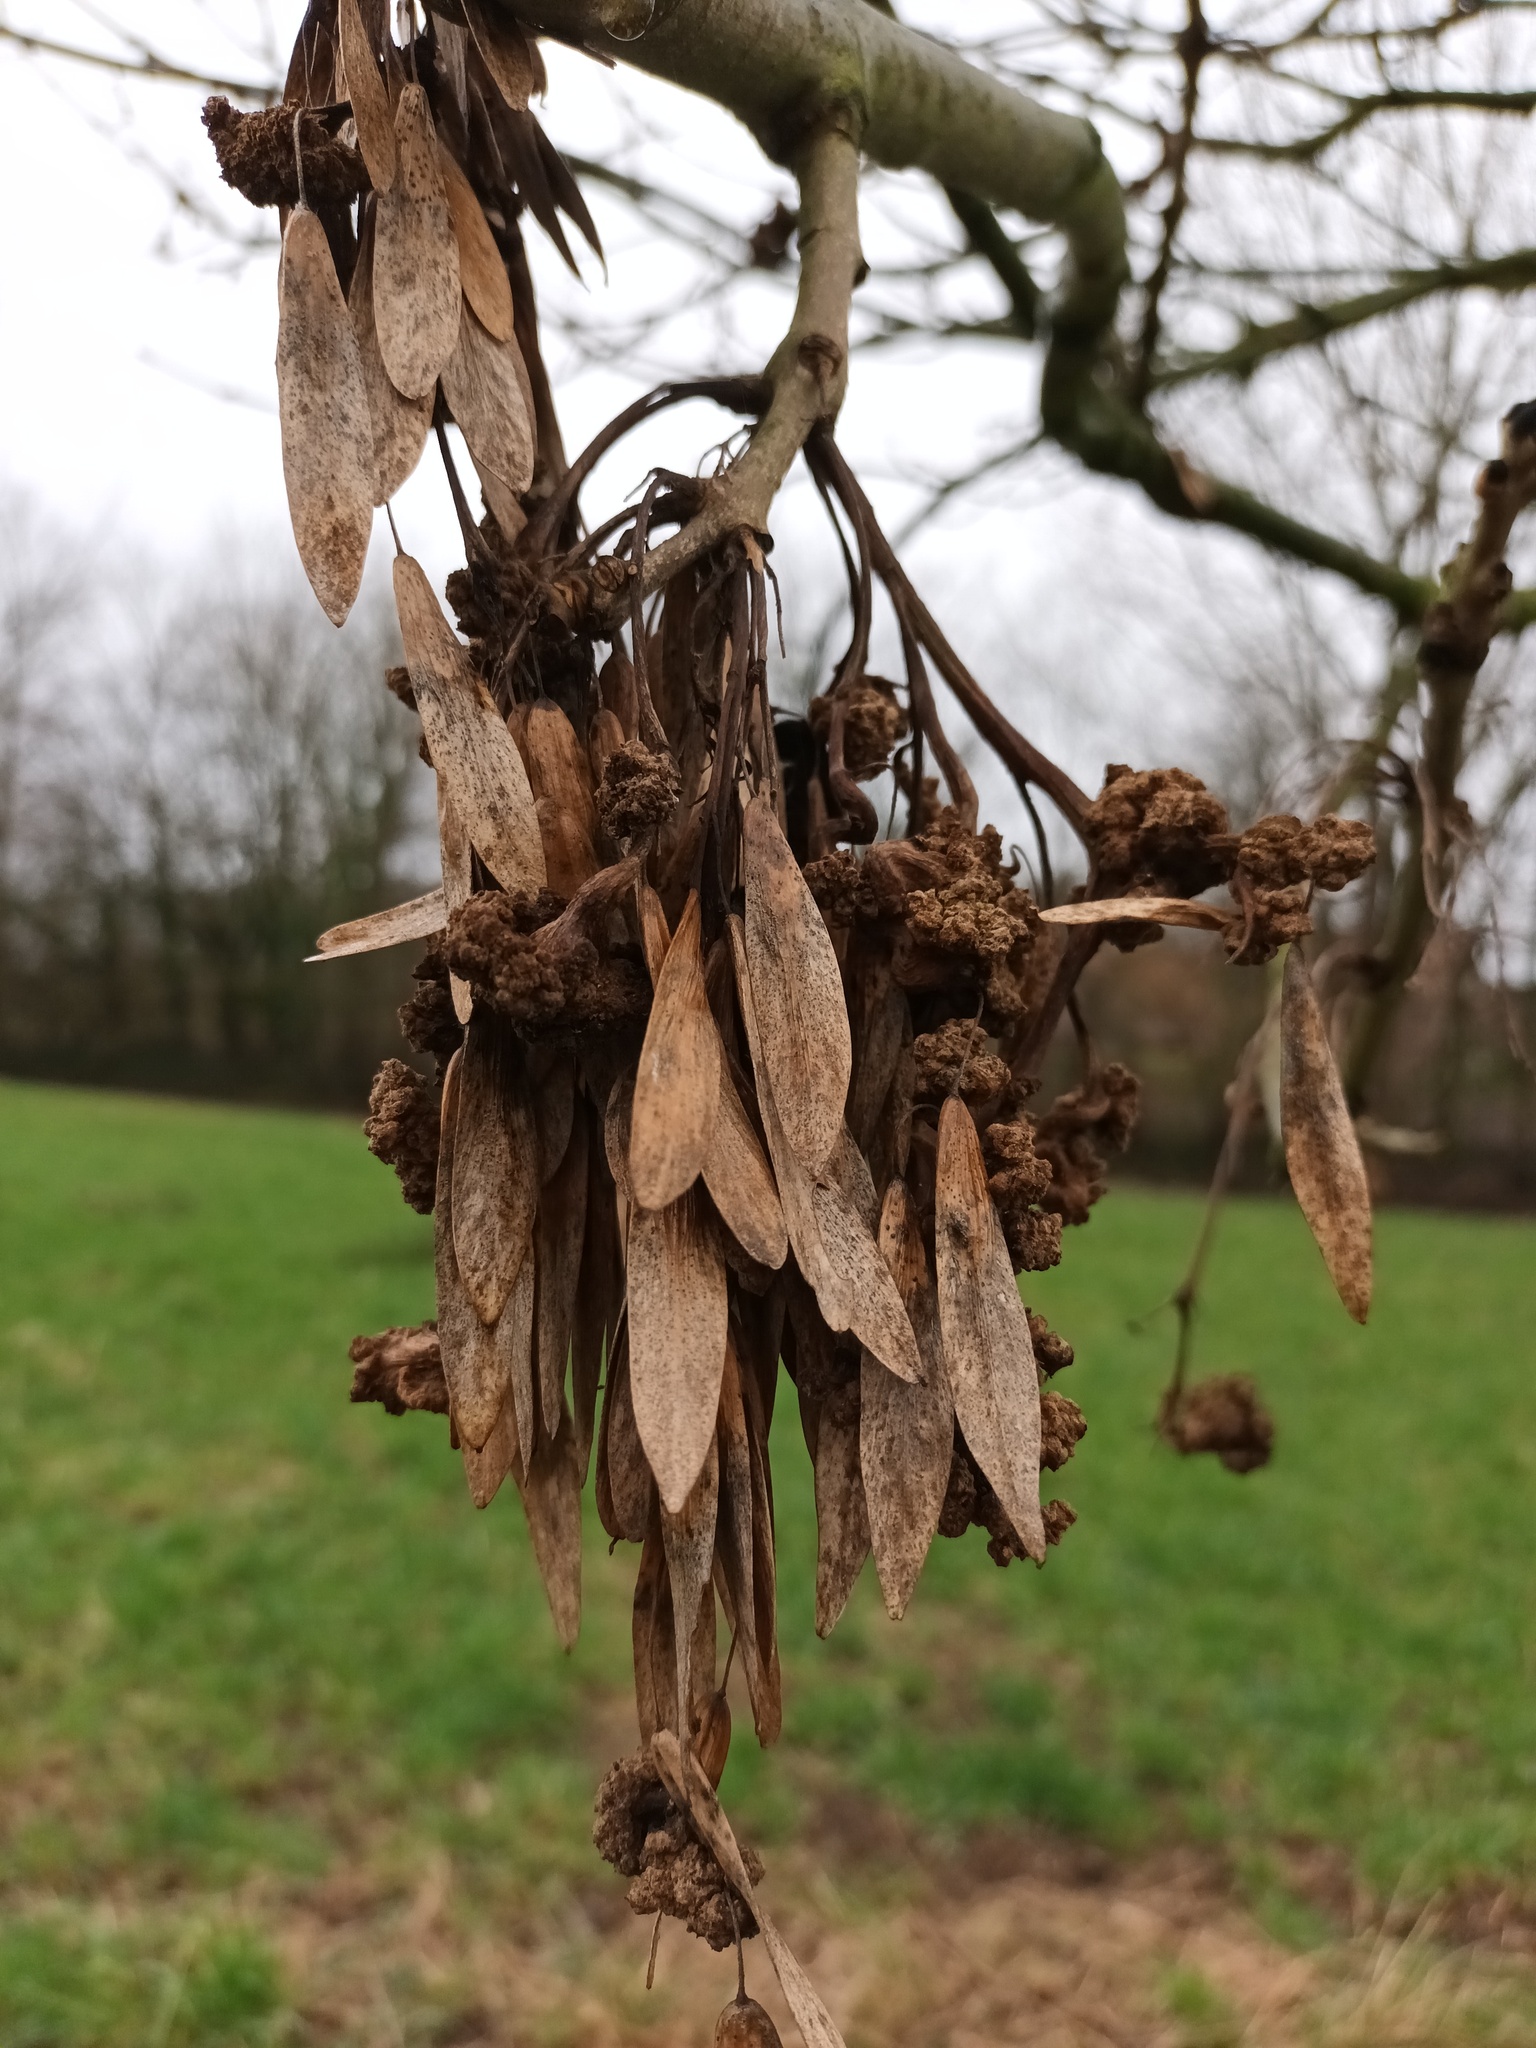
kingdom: Animalia
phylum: Arthropoda
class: Arachnida
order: Trombidiformes
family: Eriophyidae
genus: Aceria
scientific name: Aceria fraxinivora
